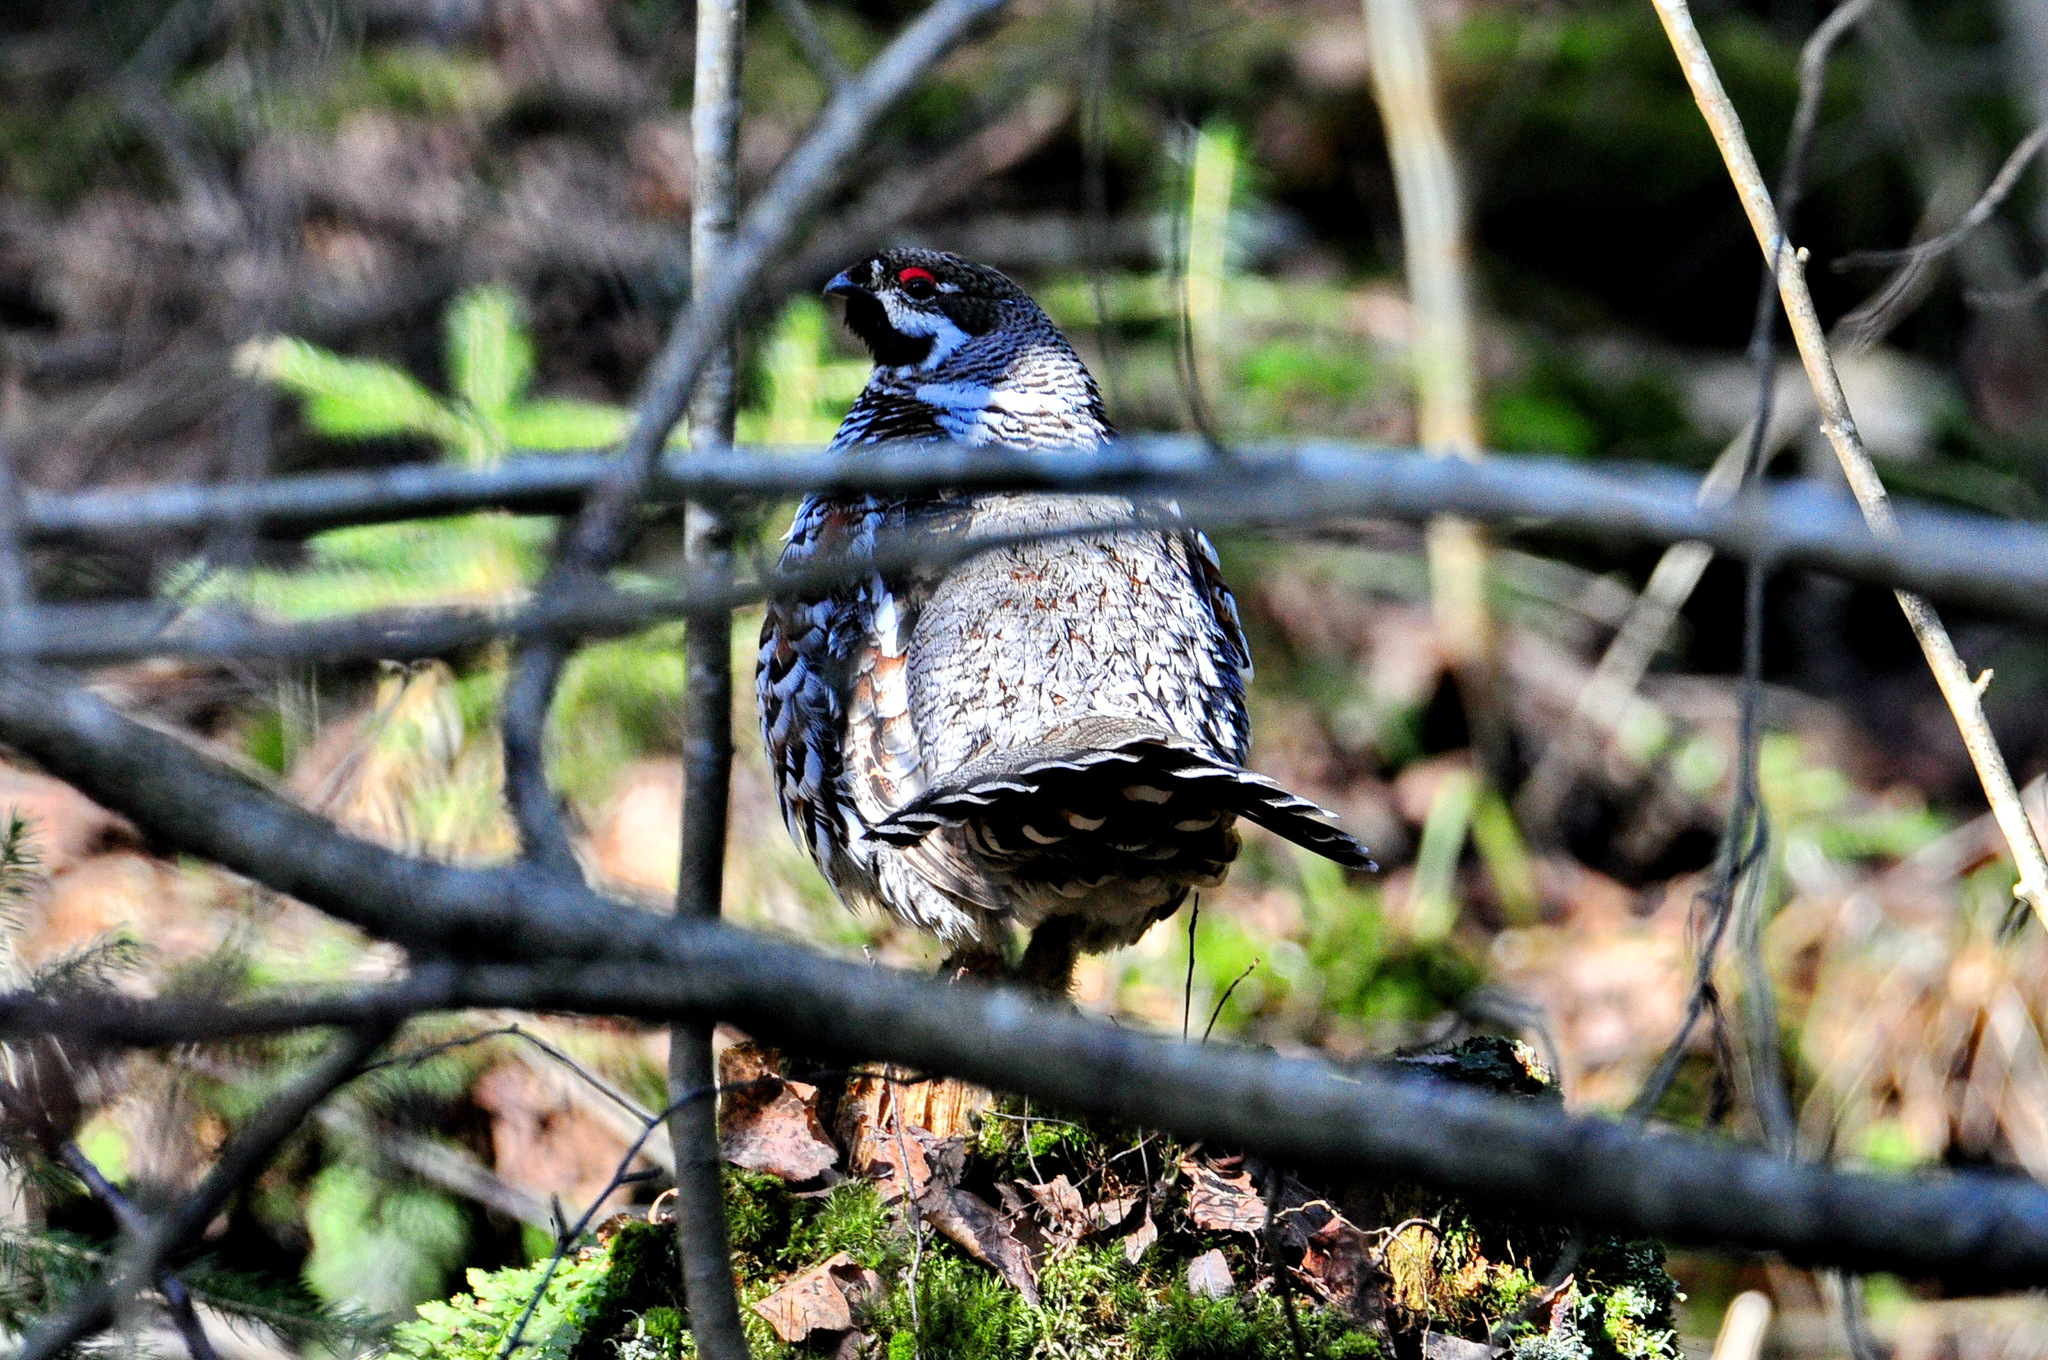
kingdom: Animalia
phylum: Chordata
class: Aves
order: Galliformes
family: Phasianidae
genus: Tetrastes
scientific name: Tetrastes bonasia
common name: Hazel grouse
